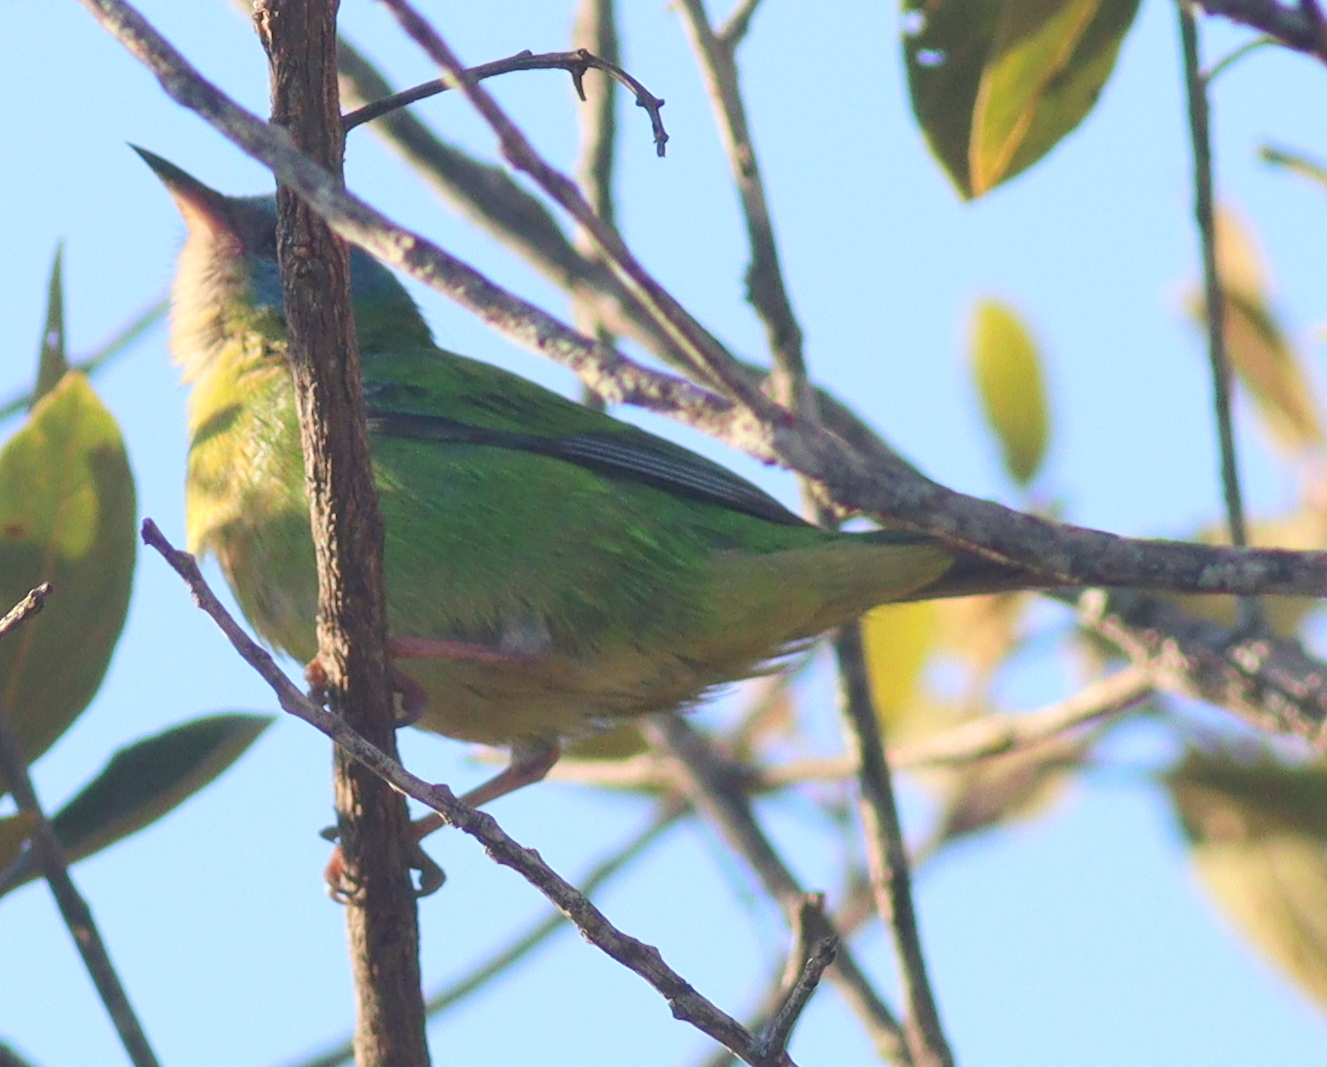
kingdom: Animalia
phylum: Chordata
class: Aves
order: Passeriformes
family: Thraupidae
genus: Dacnis
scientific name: Dacnis cayana
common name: Blue dacnis
